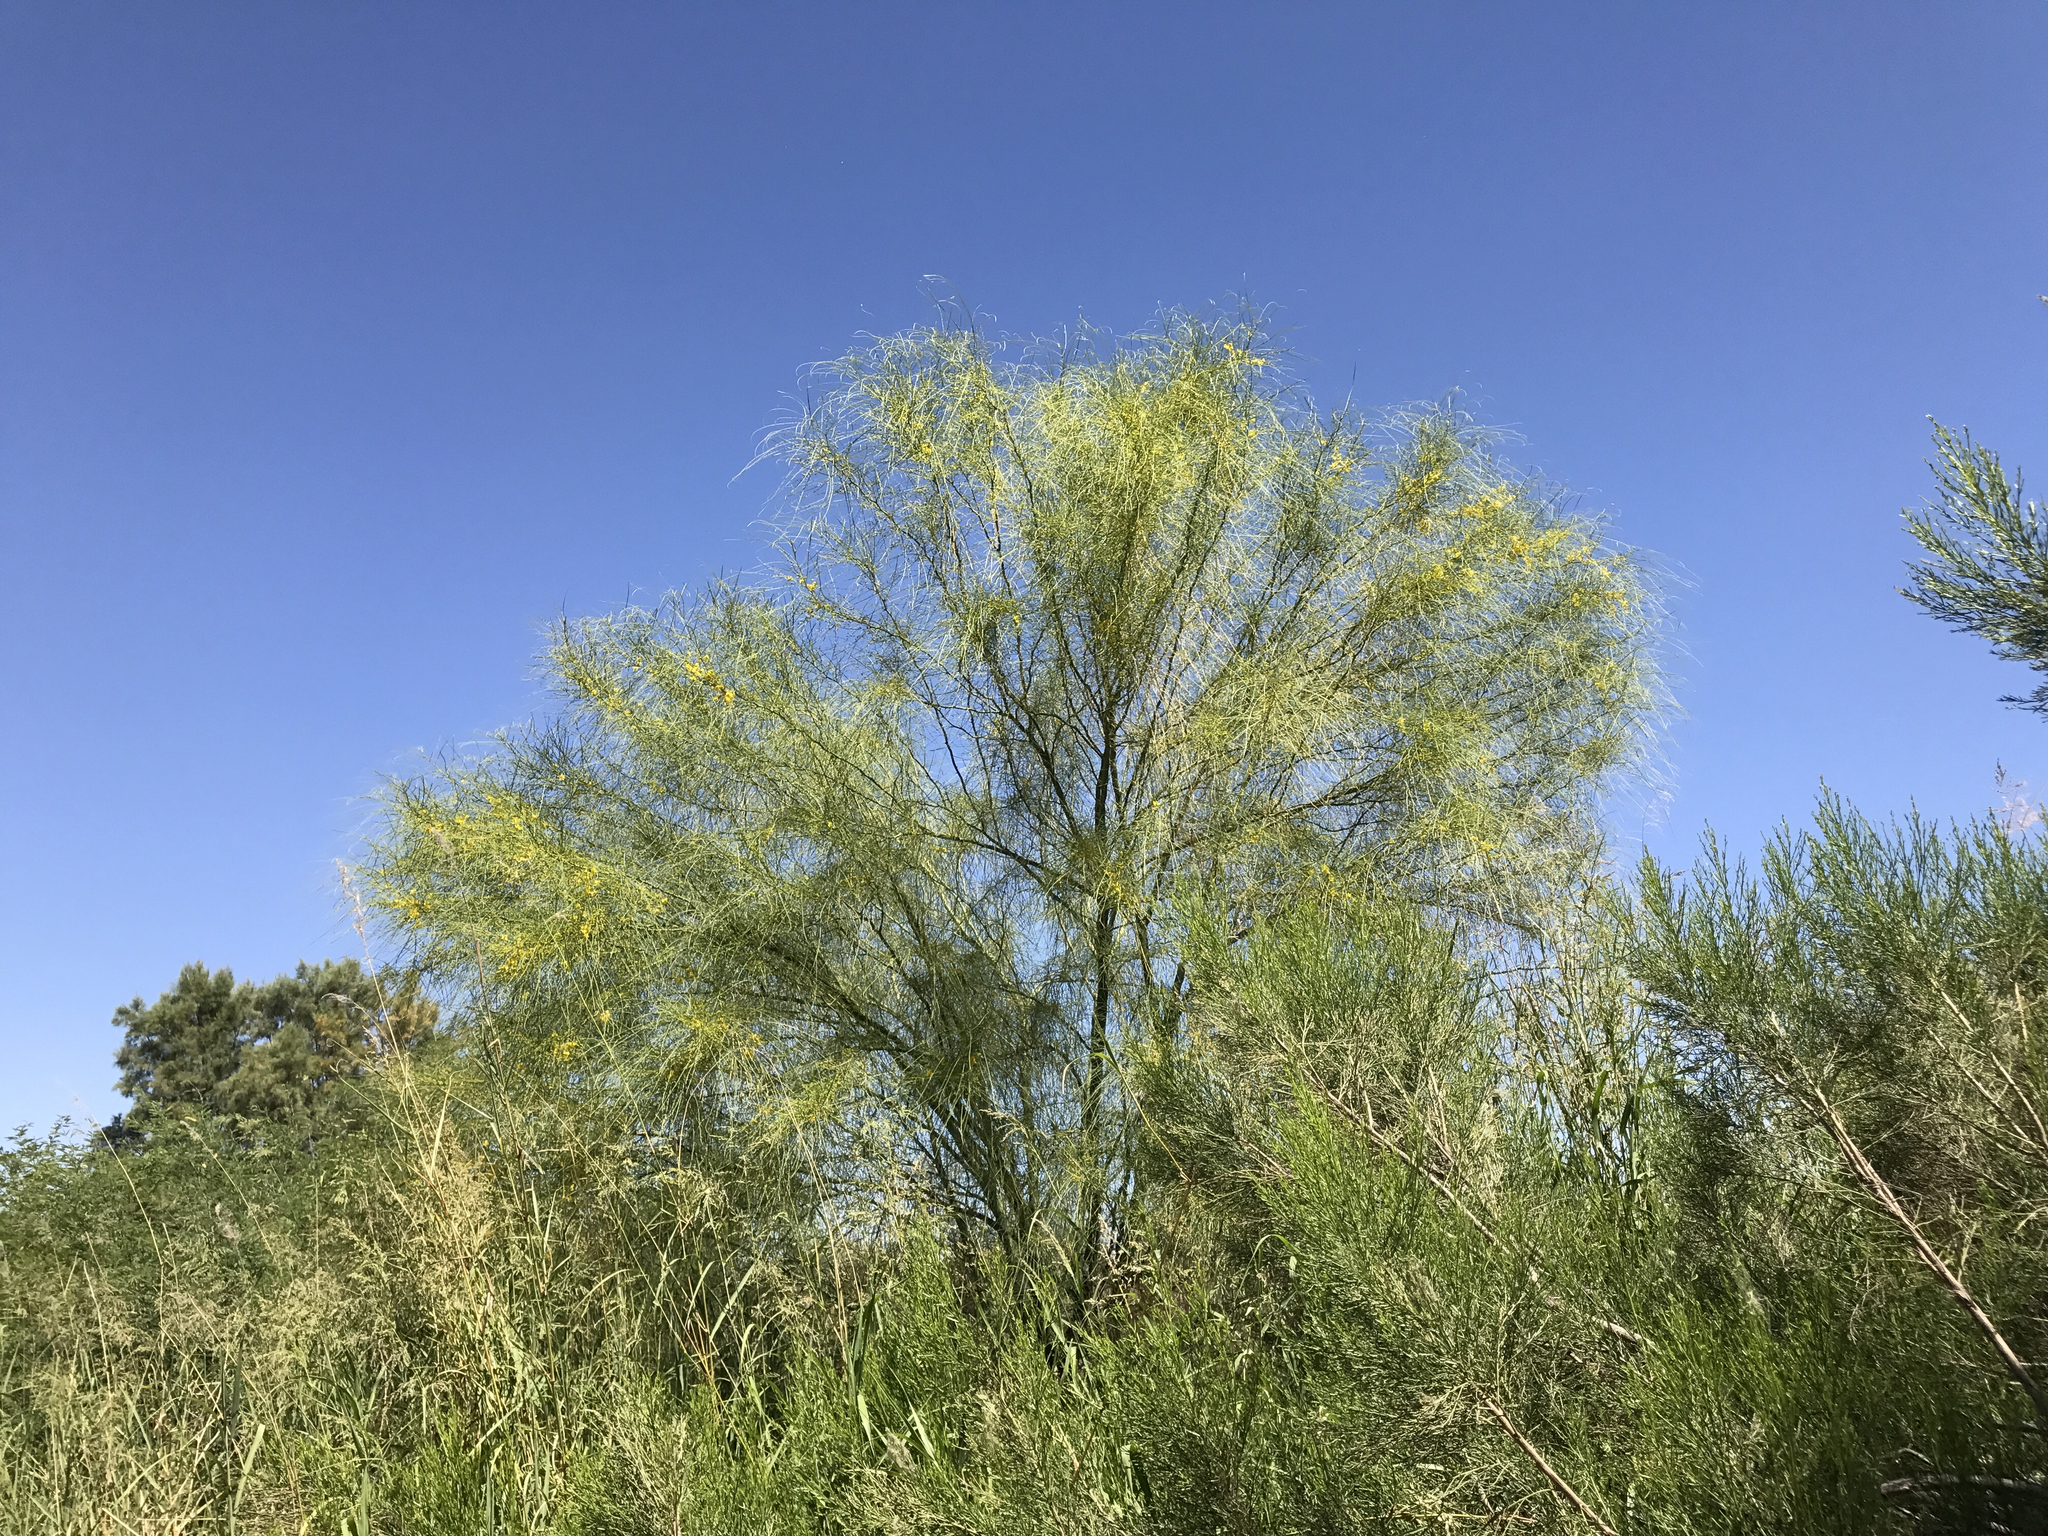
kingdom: Plantae
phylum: Tracheophyta
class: Magnoliopsida
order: Fabales
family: Fabaceae
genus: Parkinsonia
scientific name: Parkinsonia aculeata
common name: Jerusalem thorn
